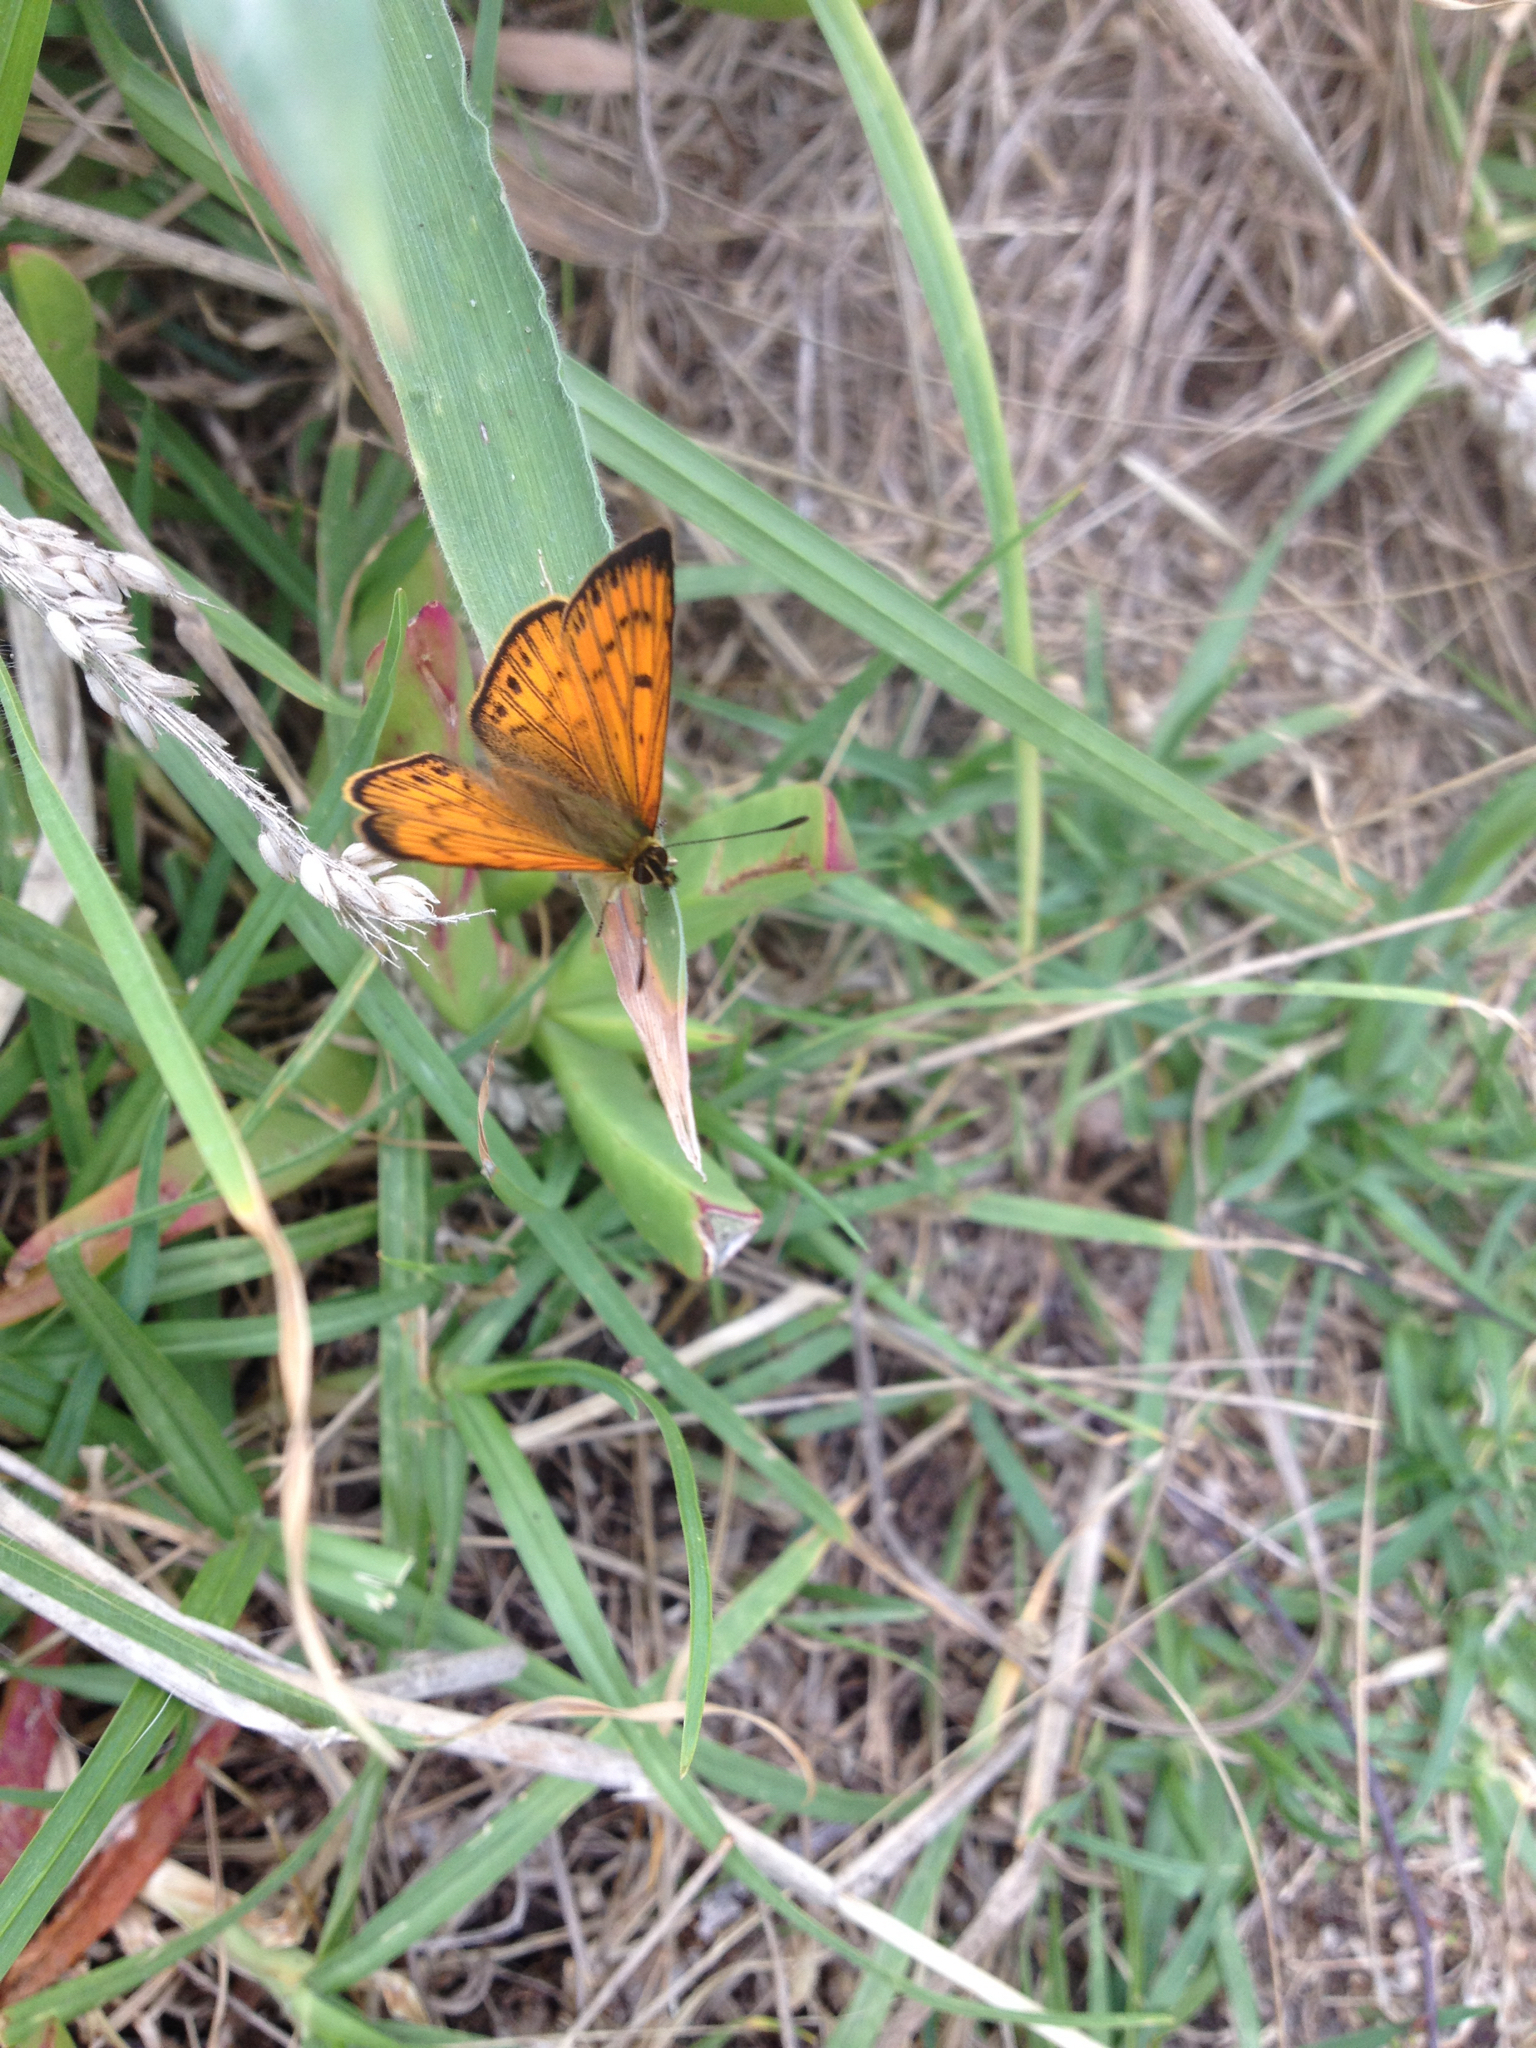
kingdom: Animalia
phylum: Arthropoda
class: Insecta
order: Lepidoptera
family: Lycaenidae
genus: Lycaena
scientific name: Lycaena salustius
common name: North island coastal copper
